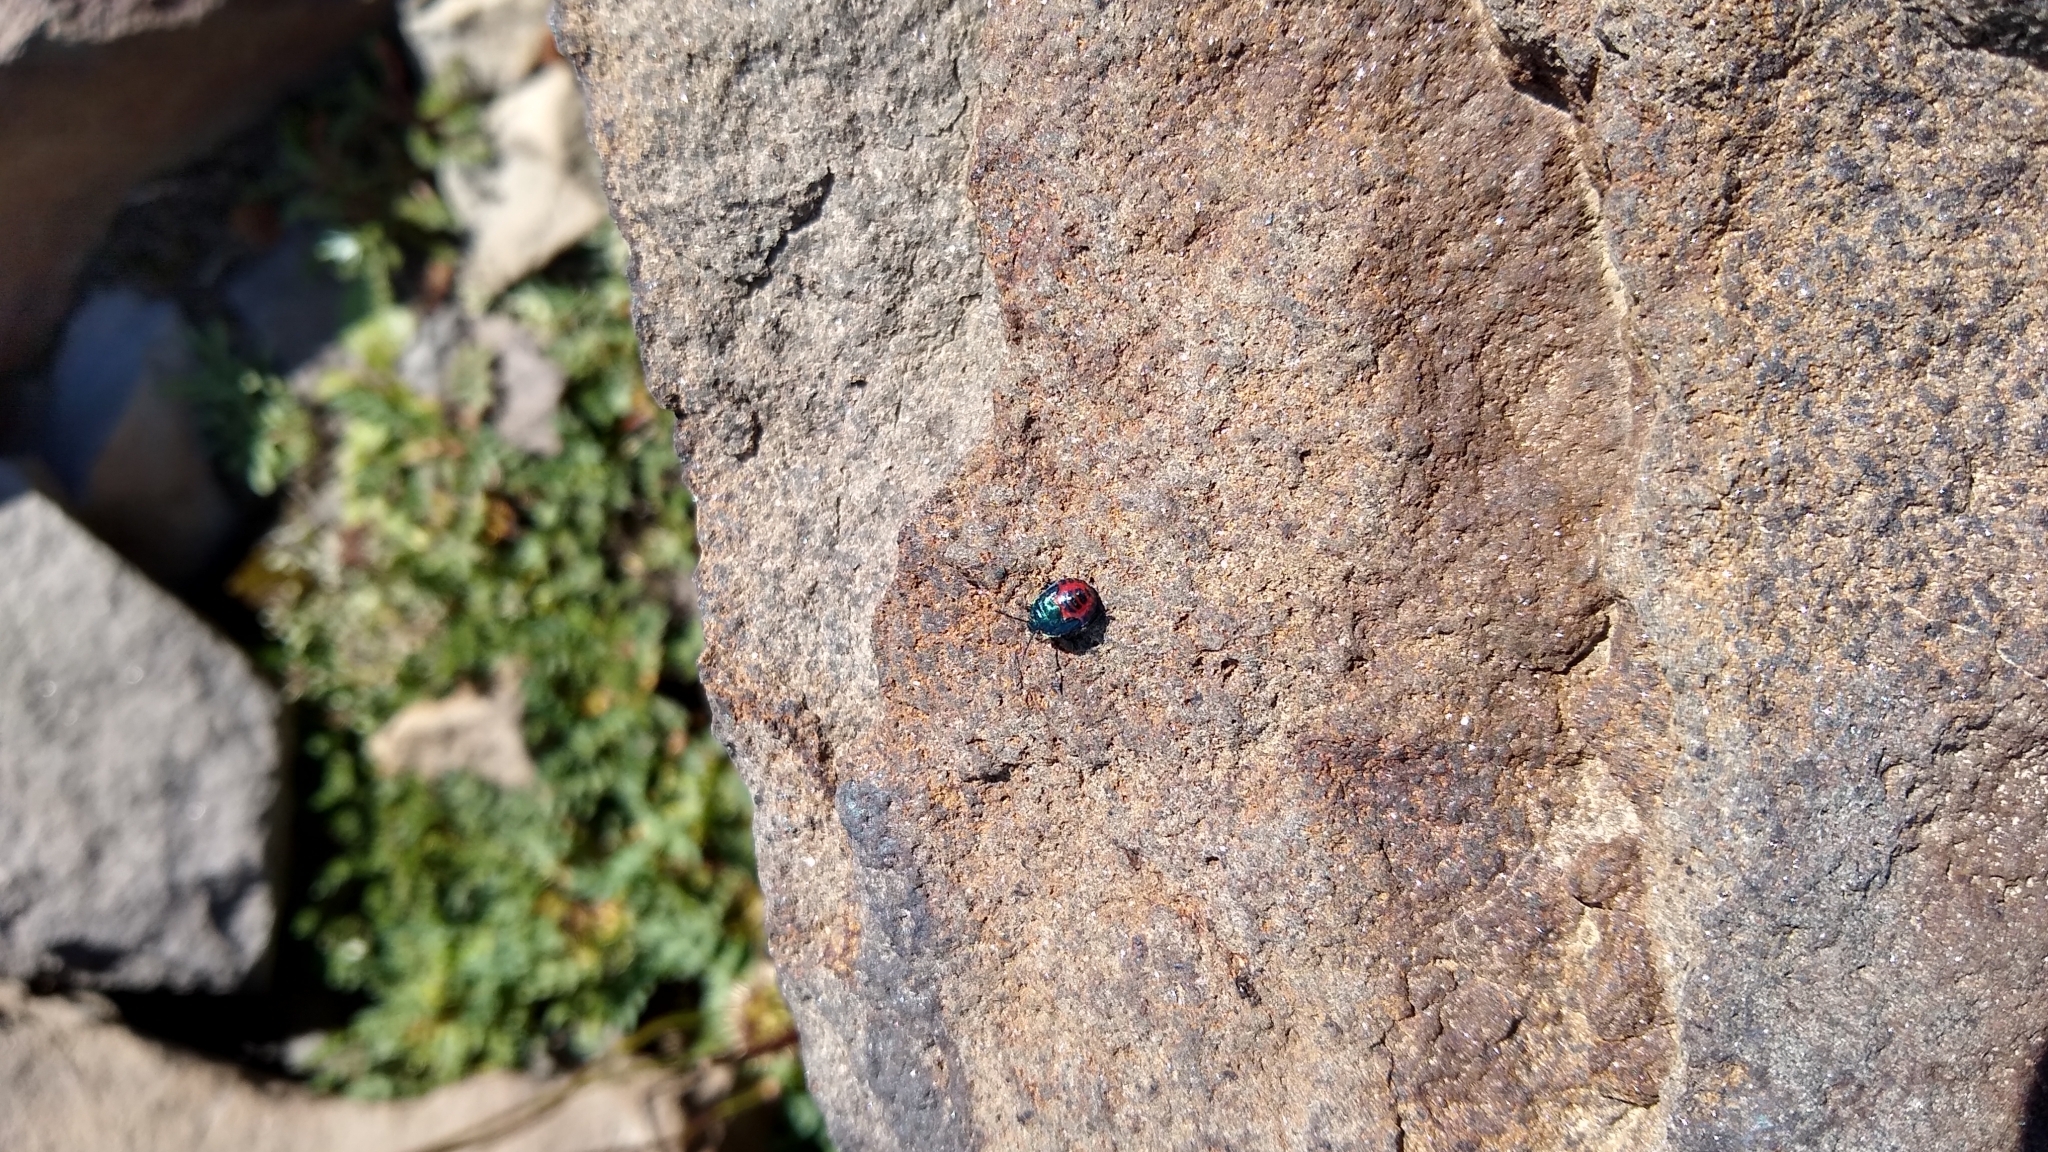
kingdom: Animalia
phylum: Arthropoda
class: Insecta
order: Hemiptera
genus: Comperocoris
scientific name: Comperocoris roehneri
